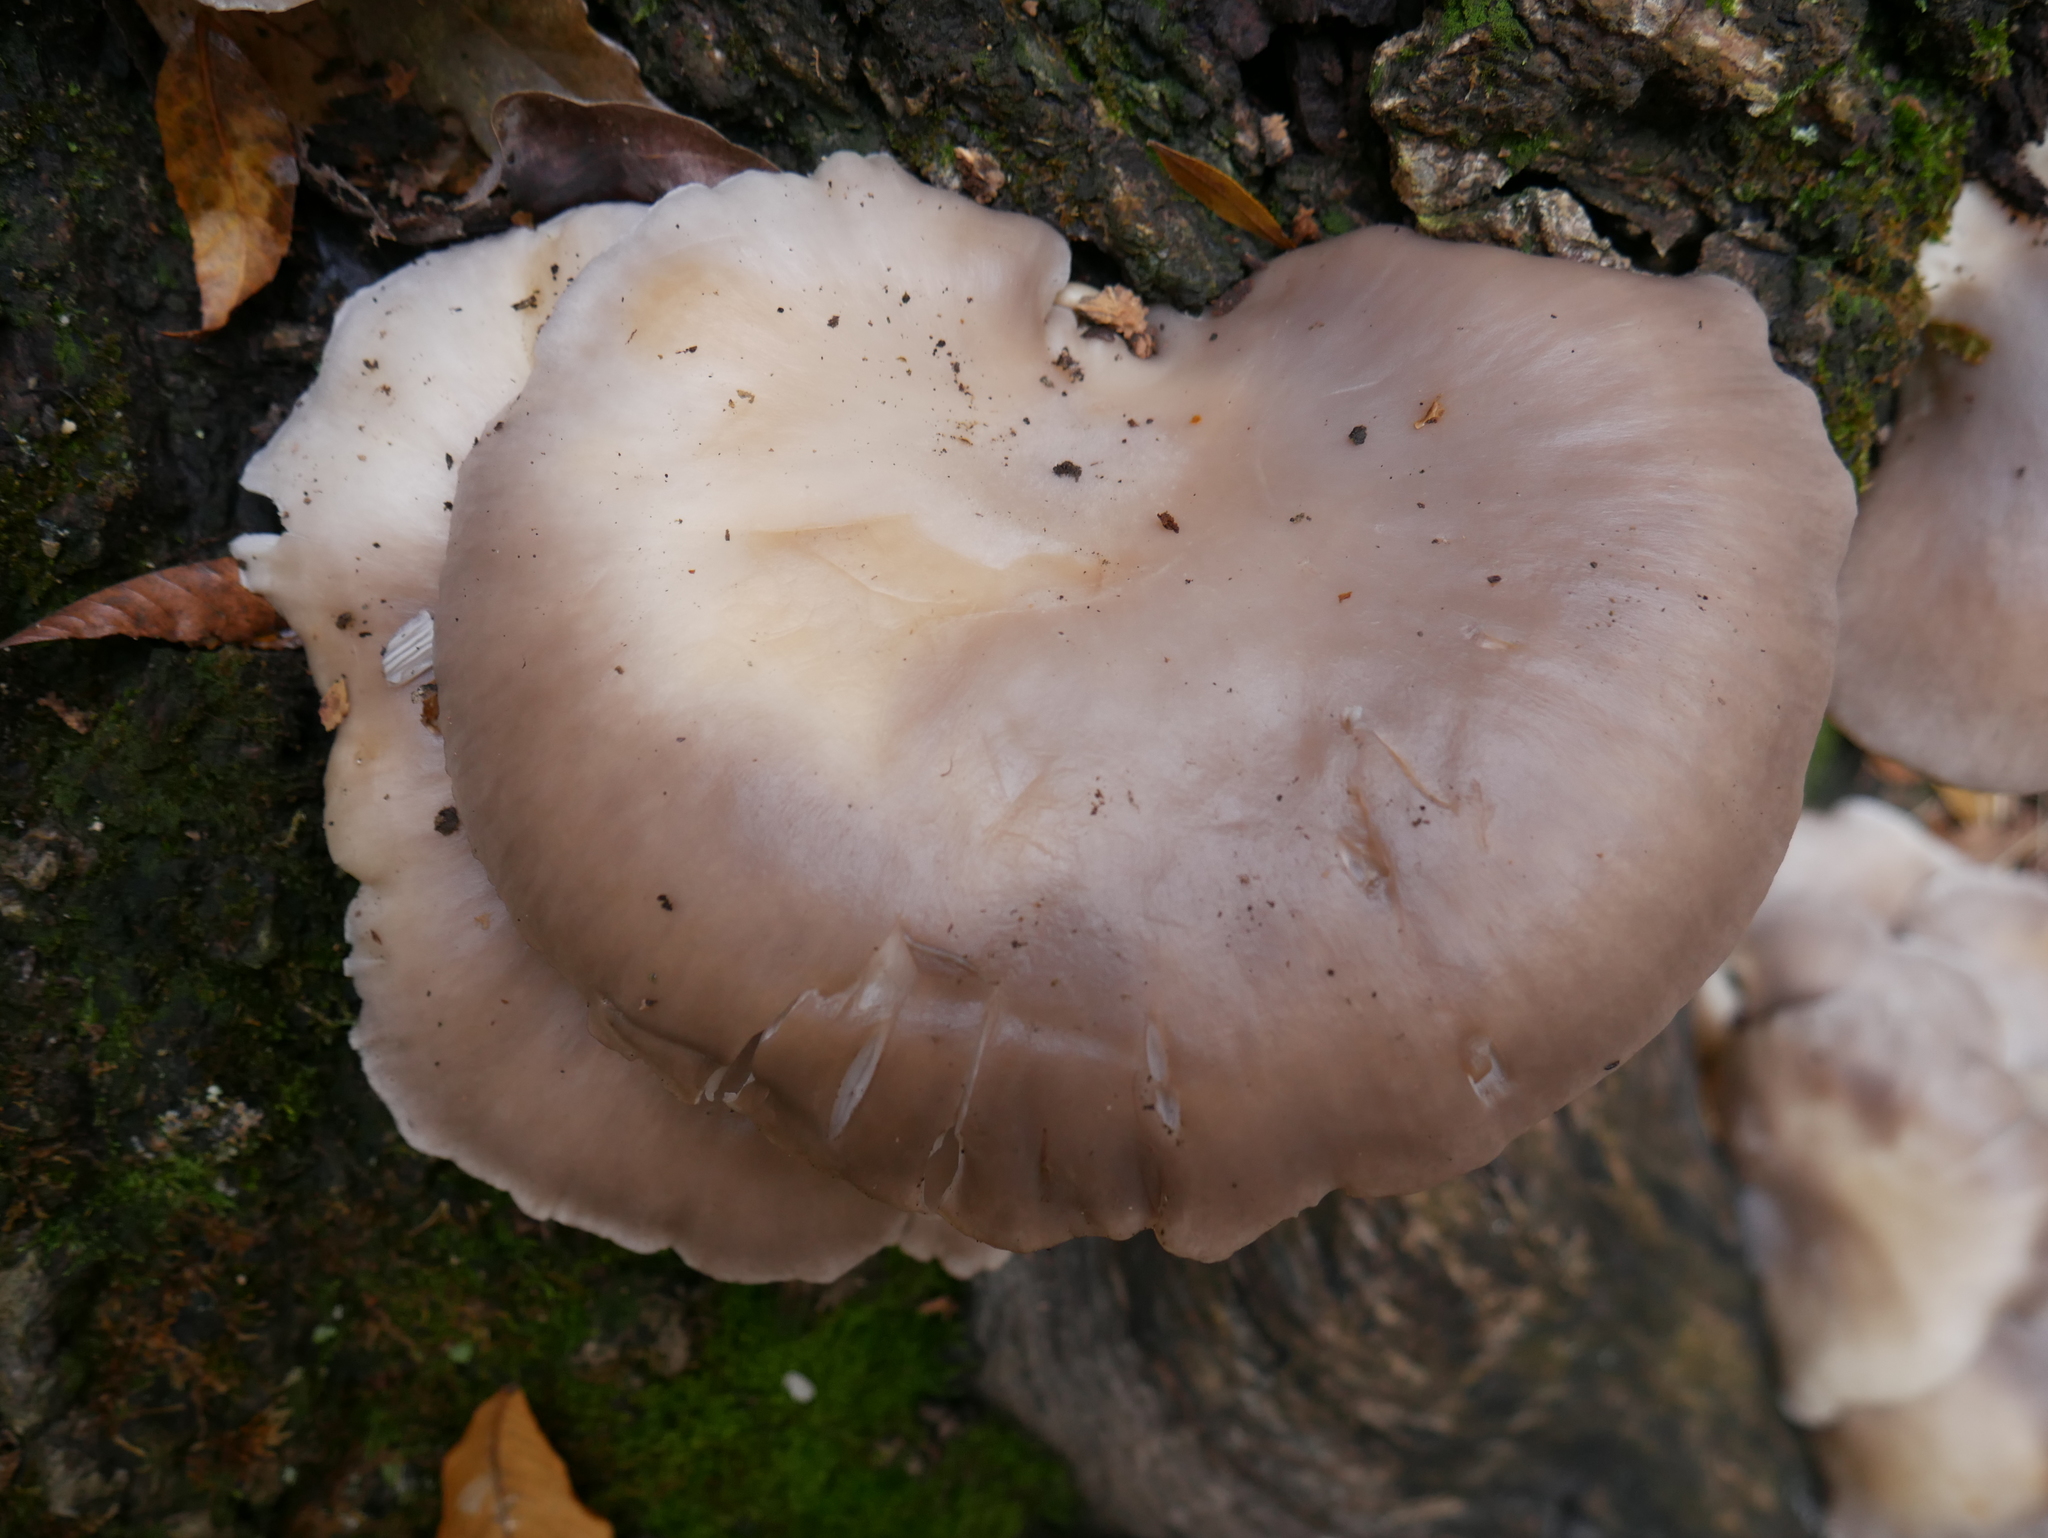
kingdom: Fungi
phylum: Basidiomycota
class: Agaricomycetes
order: Agaricales
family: Pleurotaceae
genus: Pleurotus
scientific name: Pleurotus ostreatus
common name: Oyster mushroom
